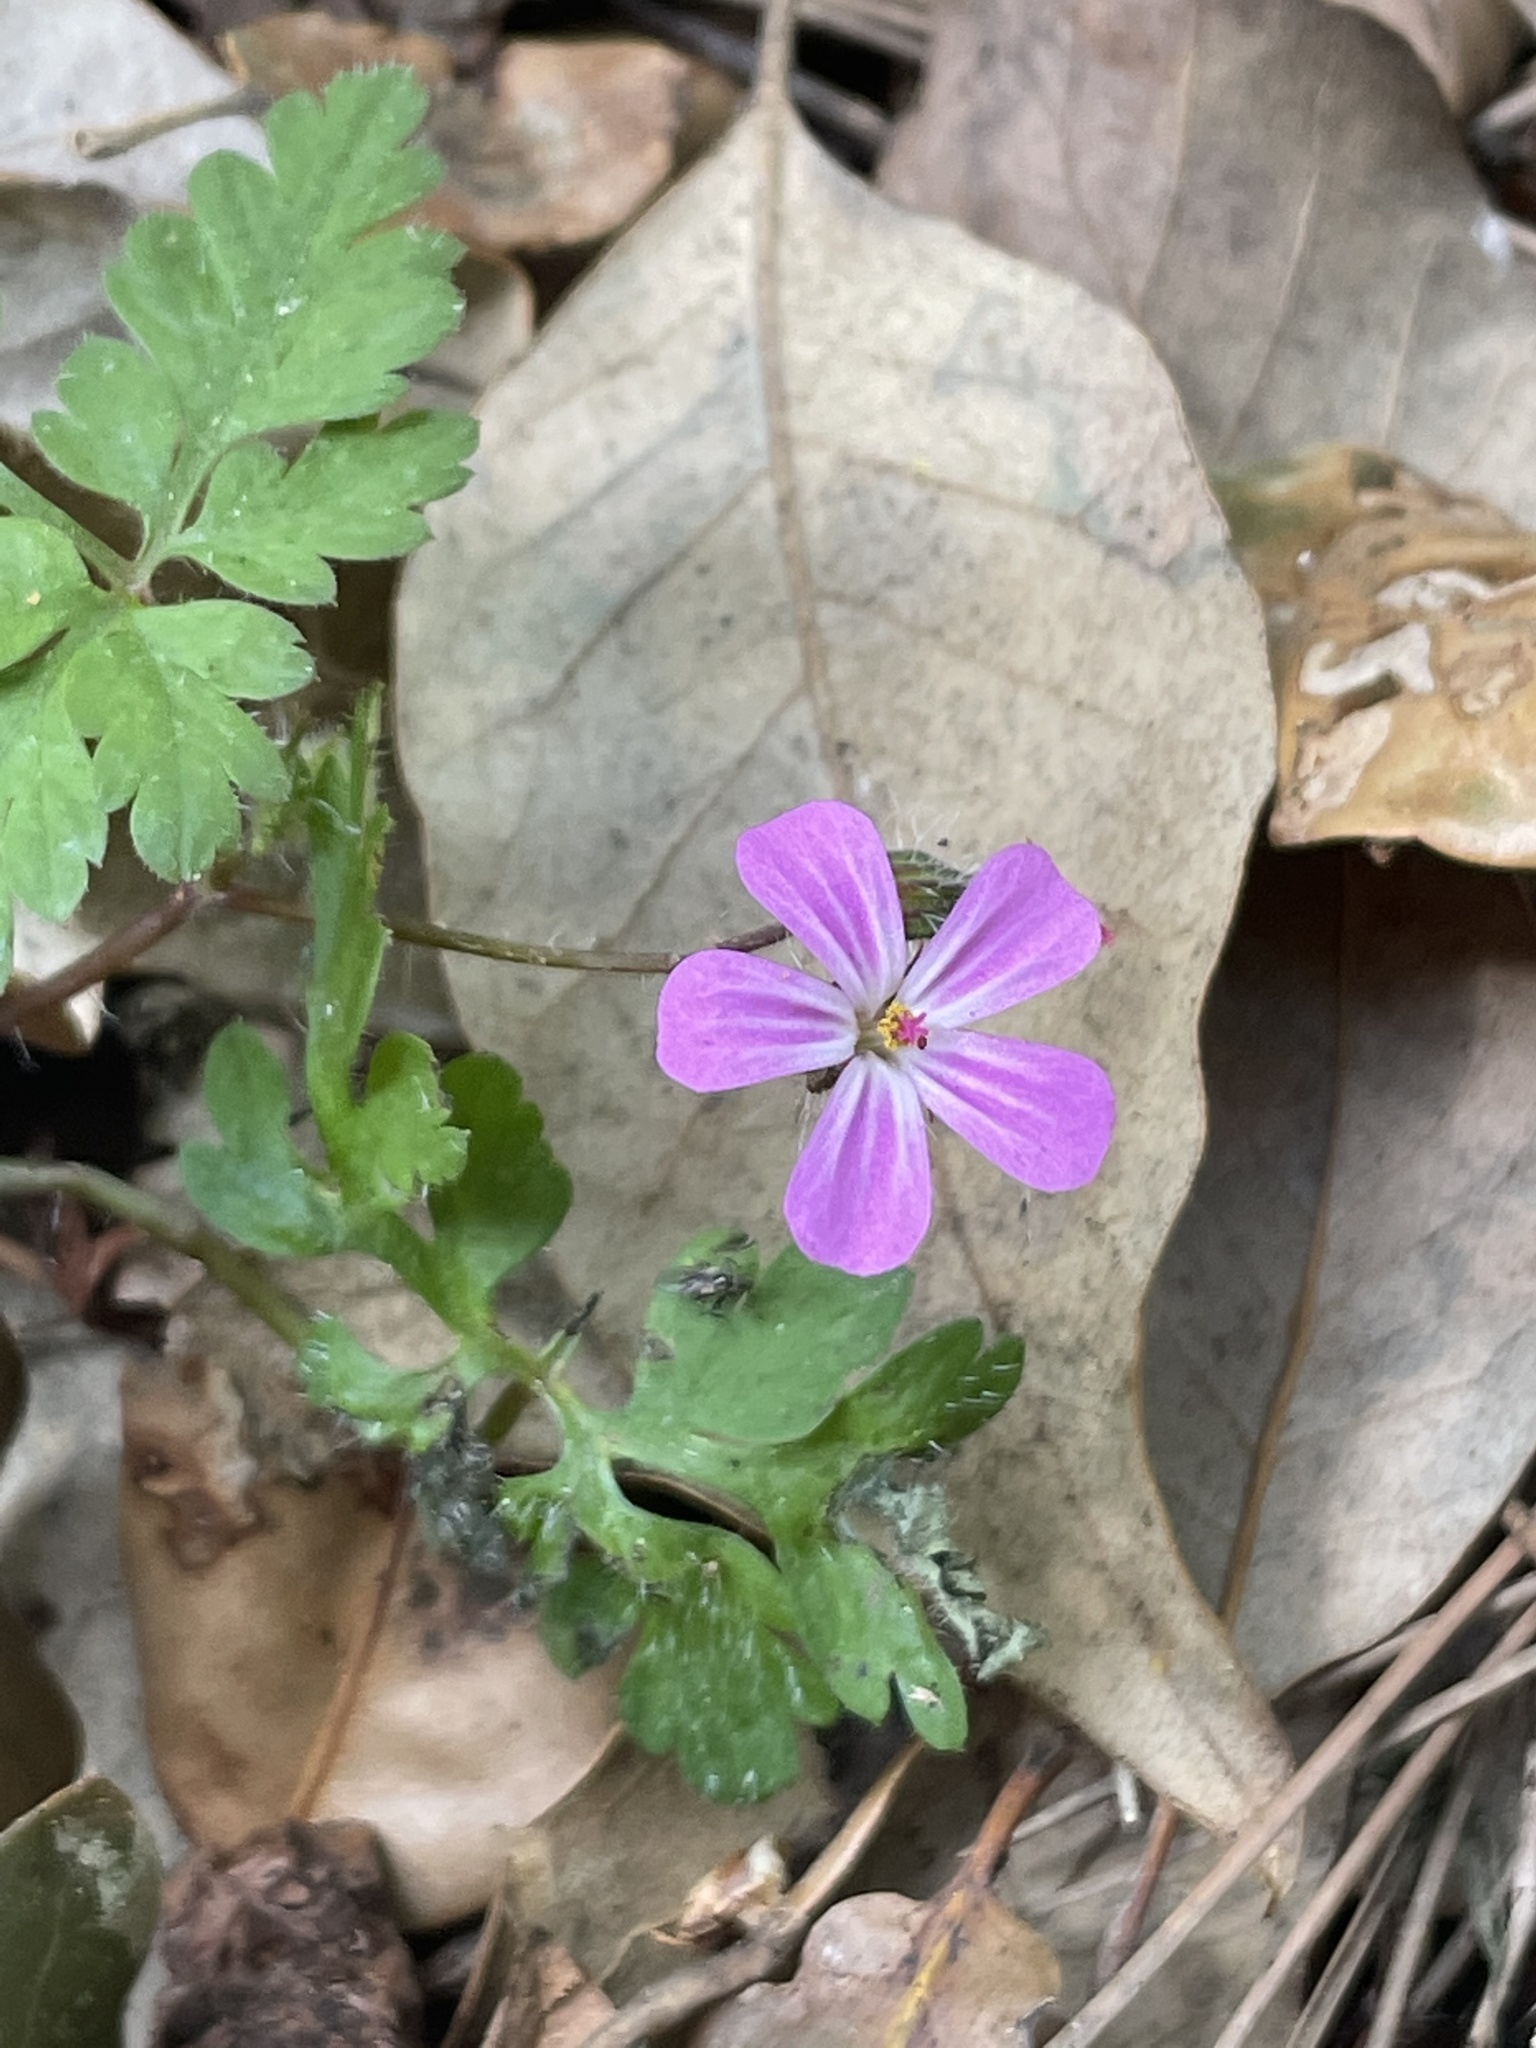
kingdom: Plantae
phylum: Tracheophyta
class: Magnoliopsida
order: Geraniales
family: Geraniaceae
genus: Geranium
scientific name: Geranium robertianum
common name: Herb-robert
